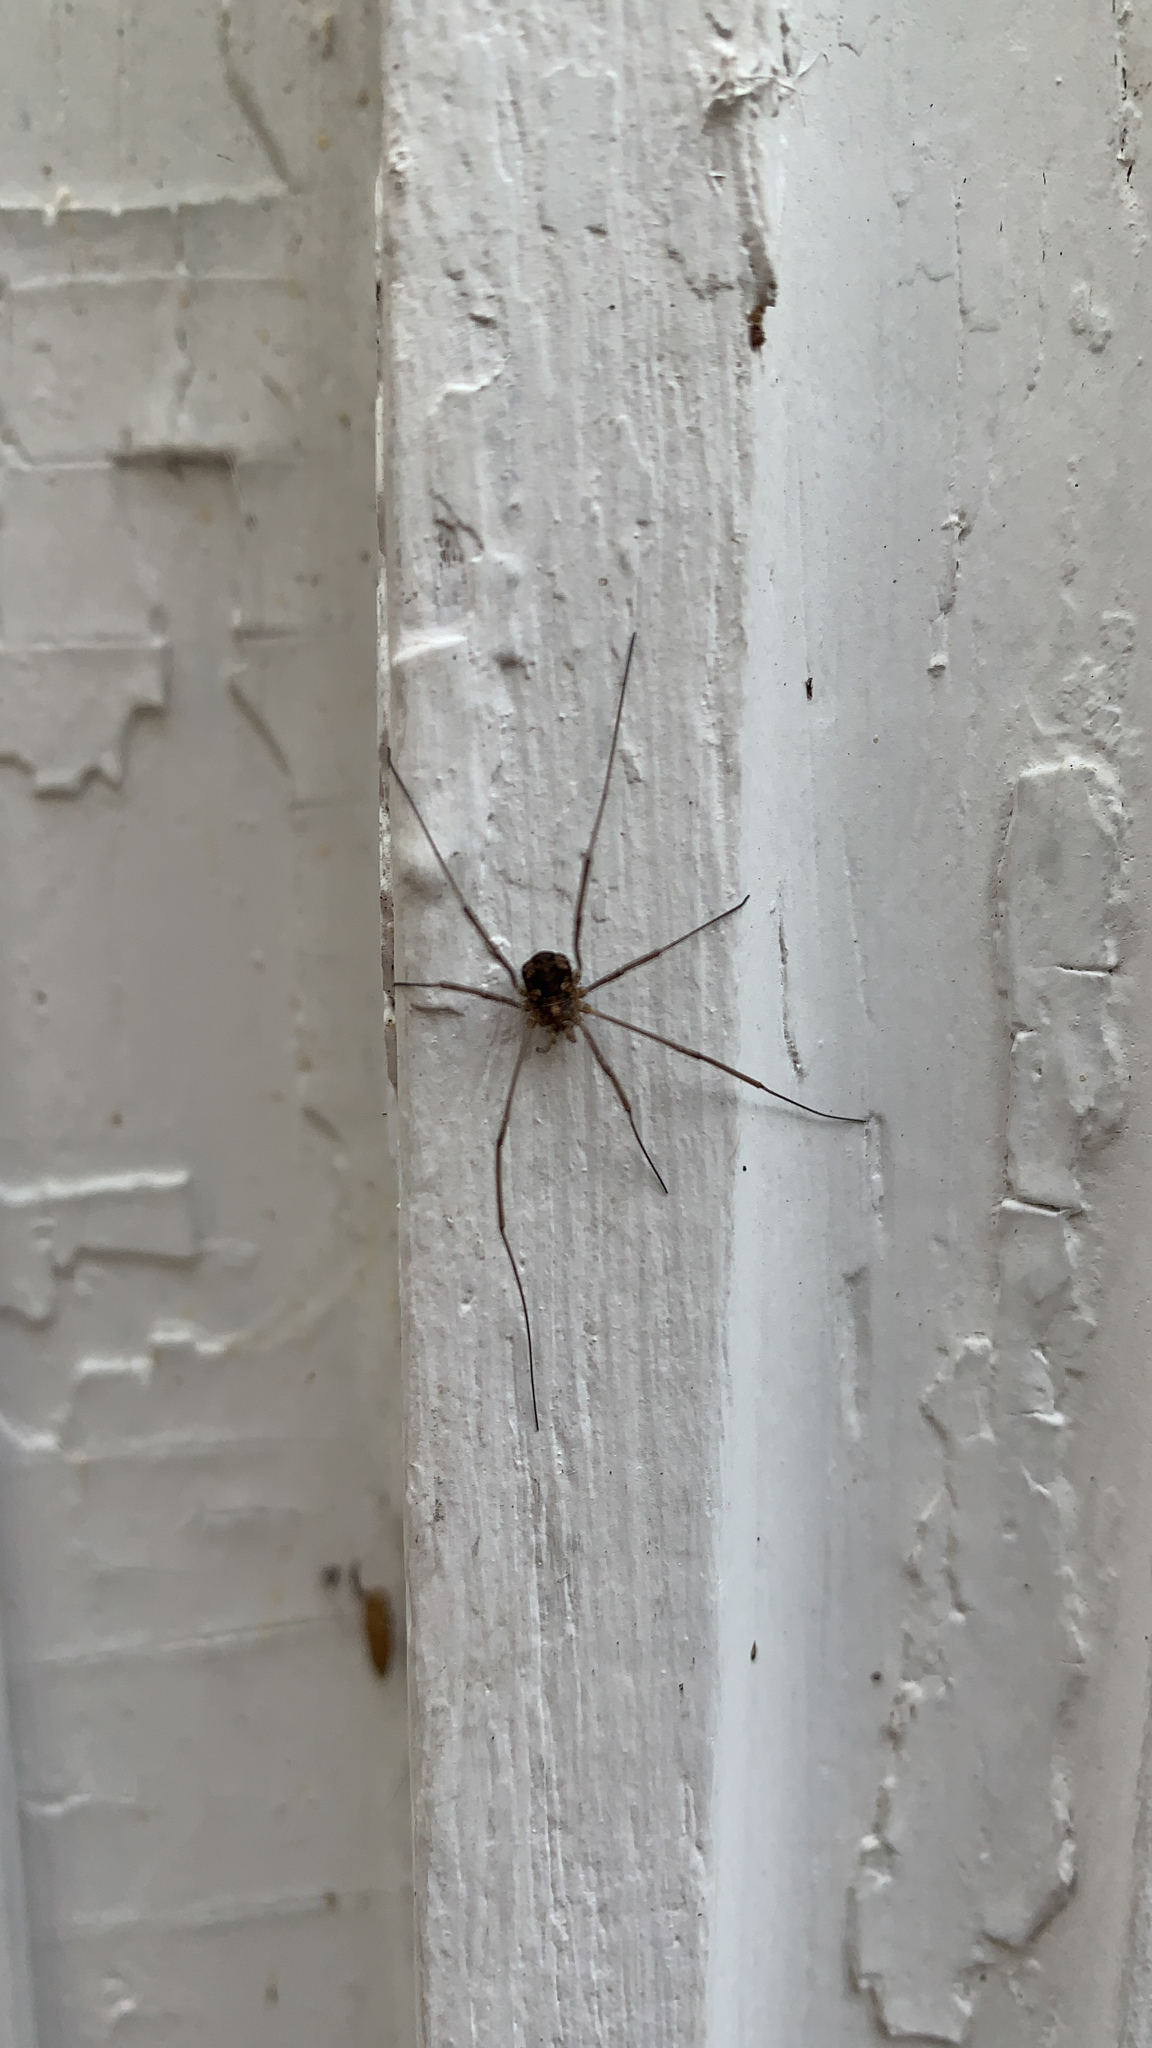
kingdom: Animalia
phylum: Arthropoda
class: Arachnida
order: Opiliones
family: Phalangiidae
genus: Phalangium
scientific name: Phalangium opilio
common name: Daddy longleg
